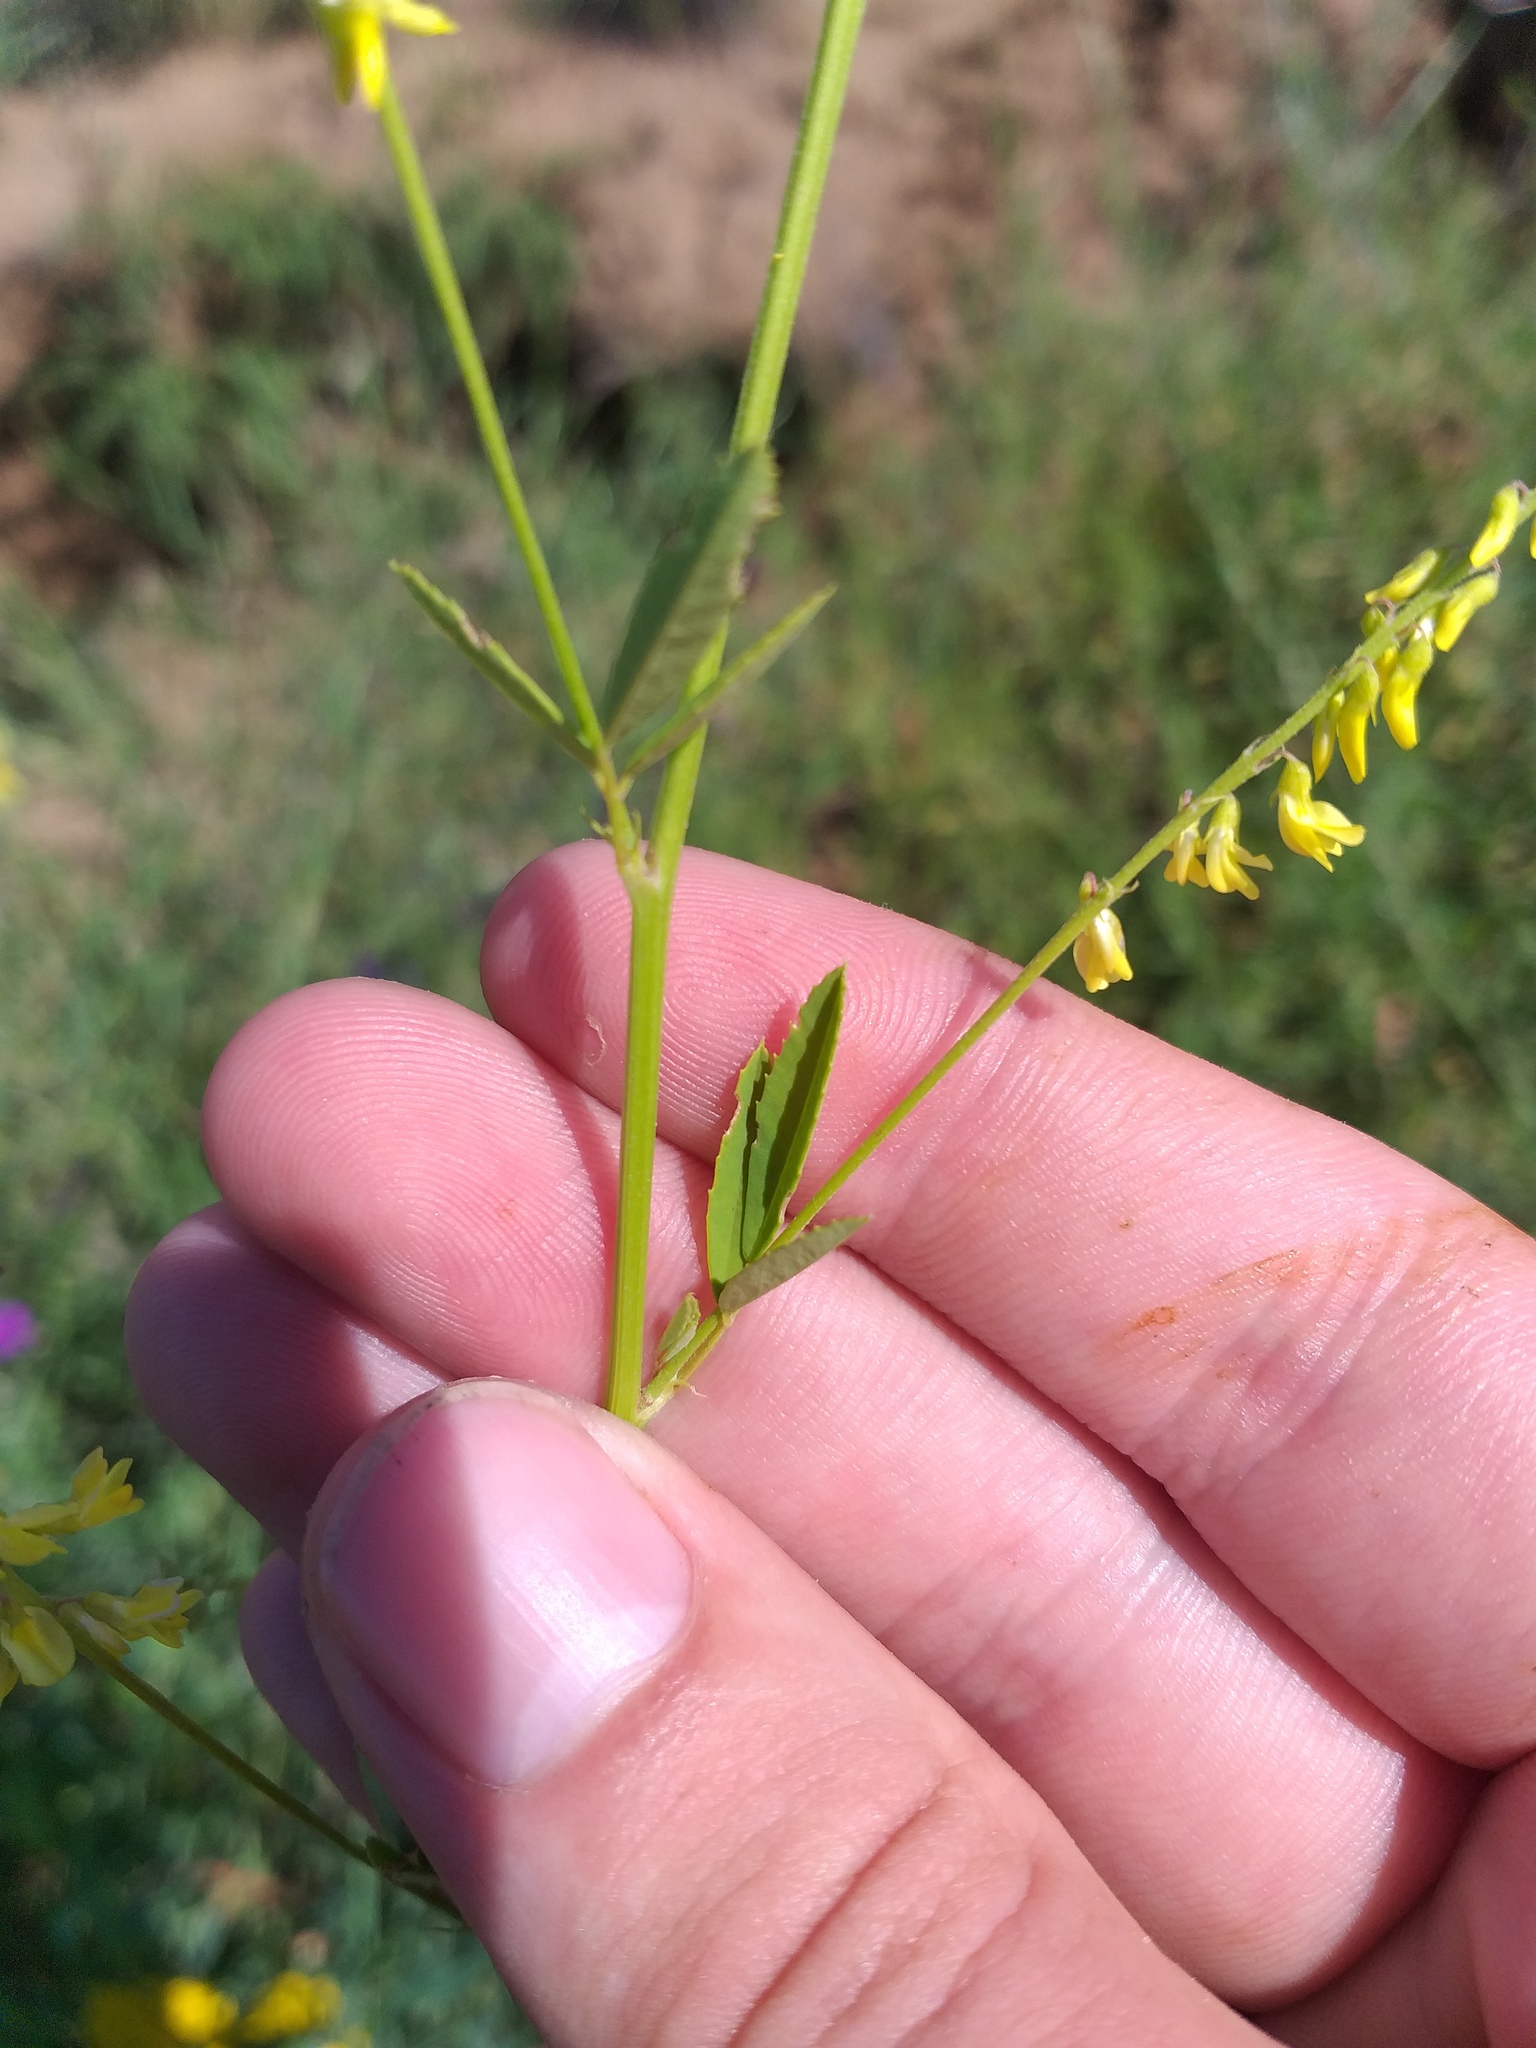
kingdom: Plantae
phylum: Tracheophyta
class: Magnoliopsida
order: Fabales
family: Fabaceae
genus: Melilotus
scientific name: Melilotus officinalis
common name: Sweetclover
